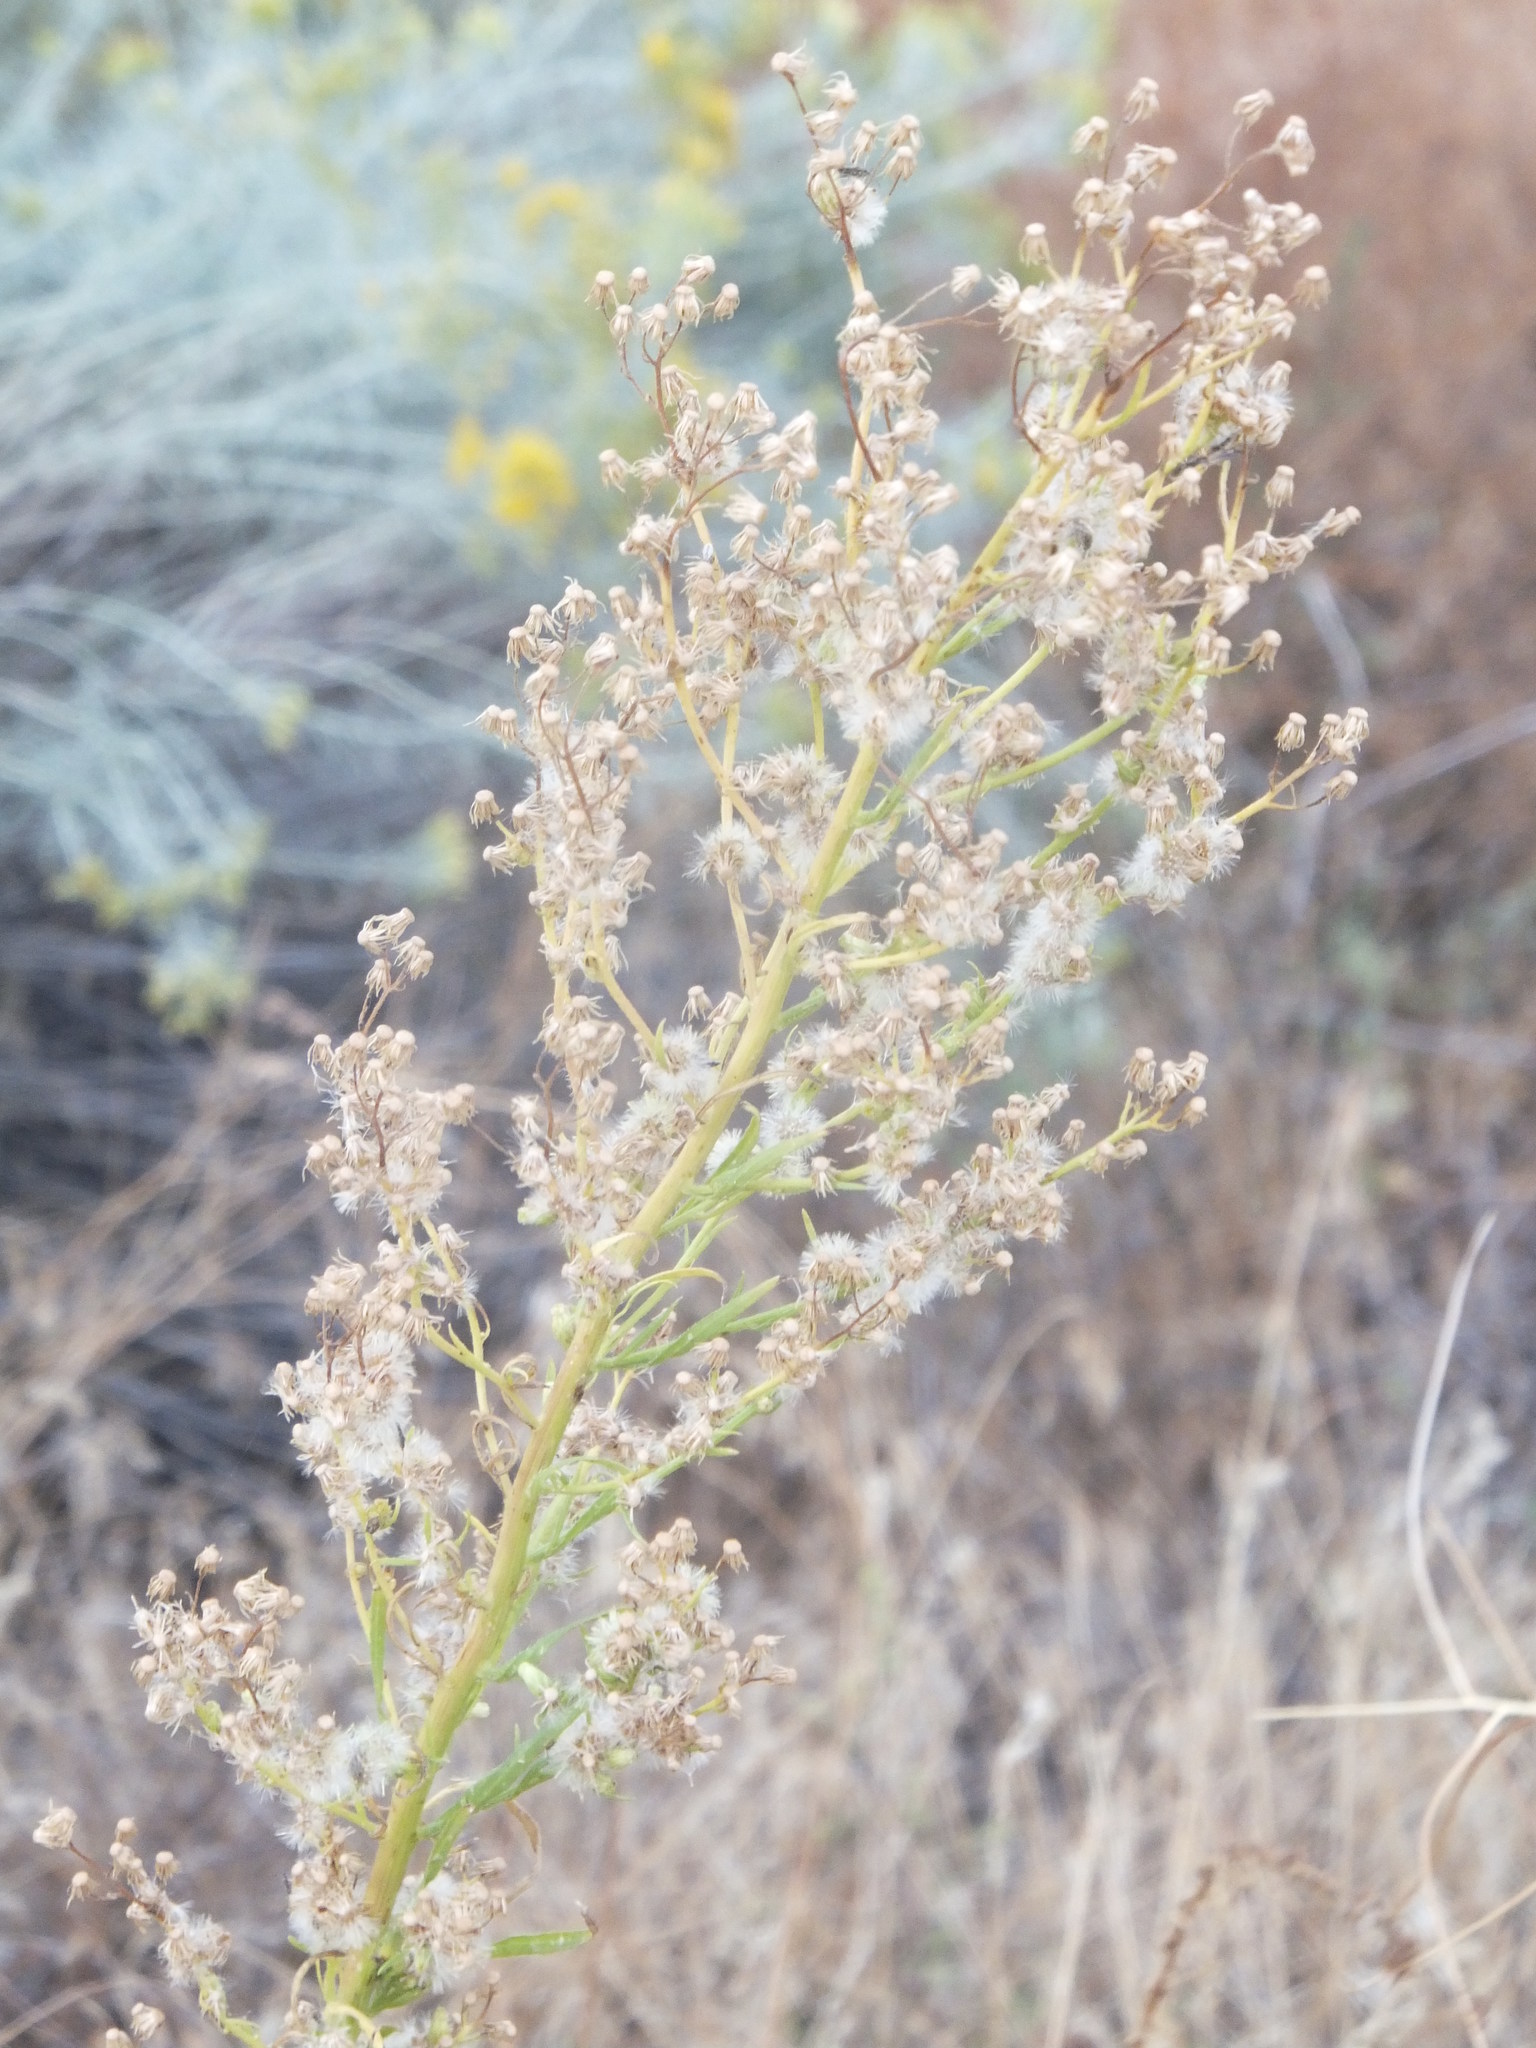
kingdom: Plantae
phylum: Tracheophyta
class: Magnoliopsida
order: Asterales
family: Asteraceae
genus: Erigeron
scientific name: Erigeron canadensis
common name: Canadian fleabane
